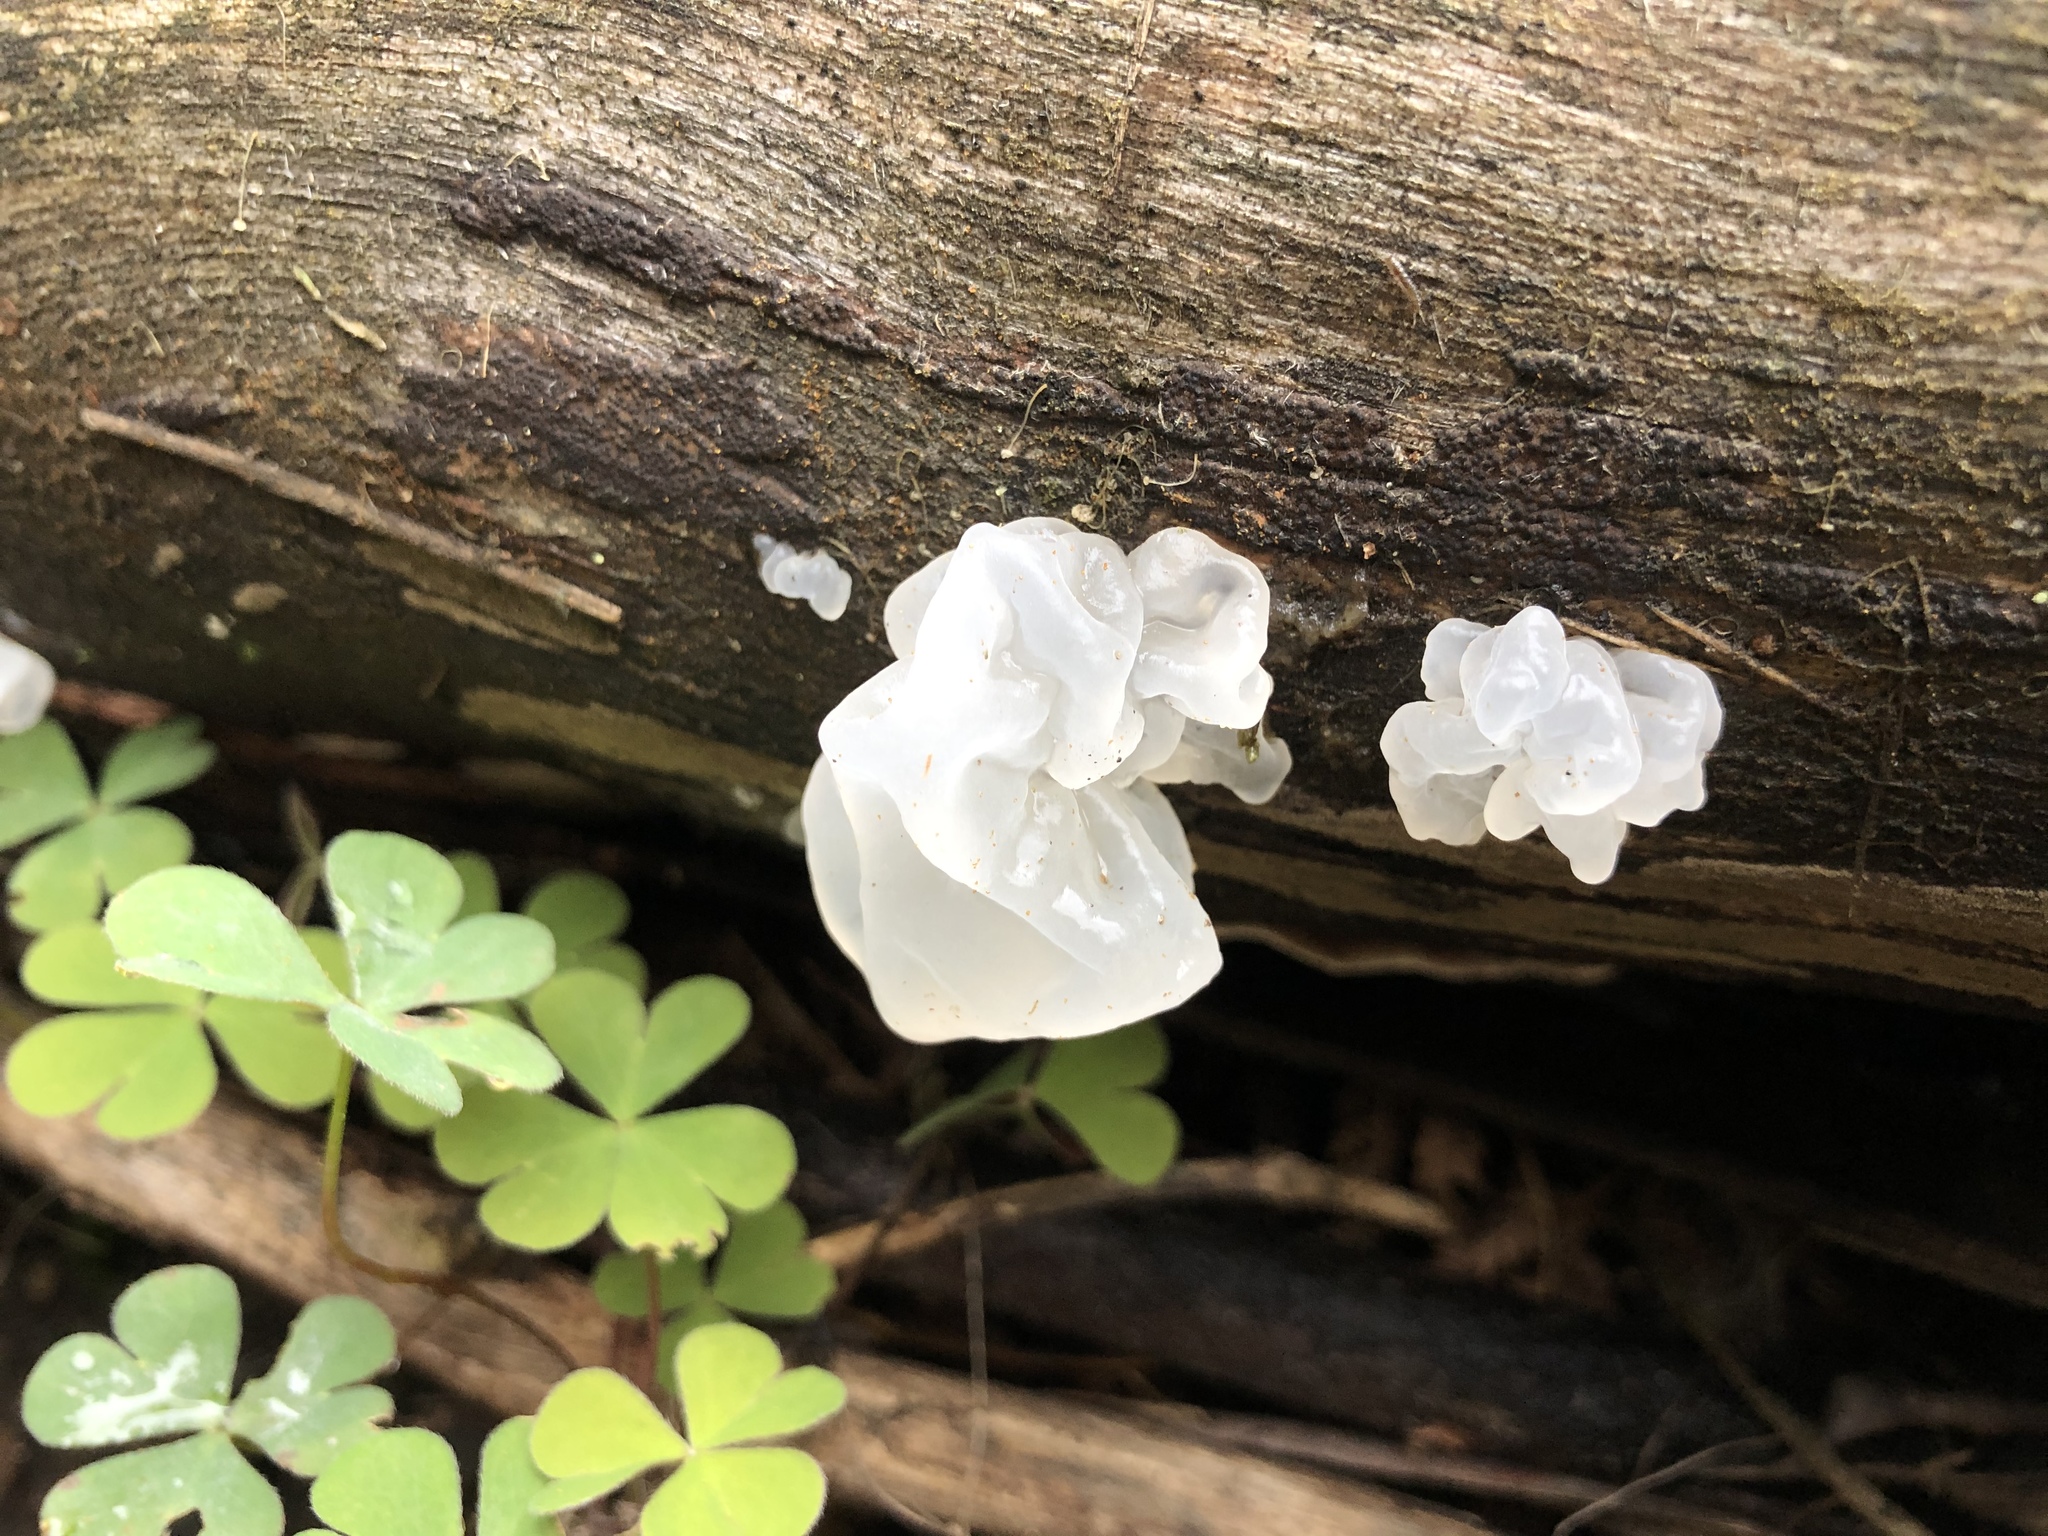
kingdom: Fungi
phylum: Basidiomycota
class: Tremellomycetes
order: Tremellales
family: Tremellaceae
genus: Tremella
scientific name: Tremella fuciformis
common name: Snow fungus
